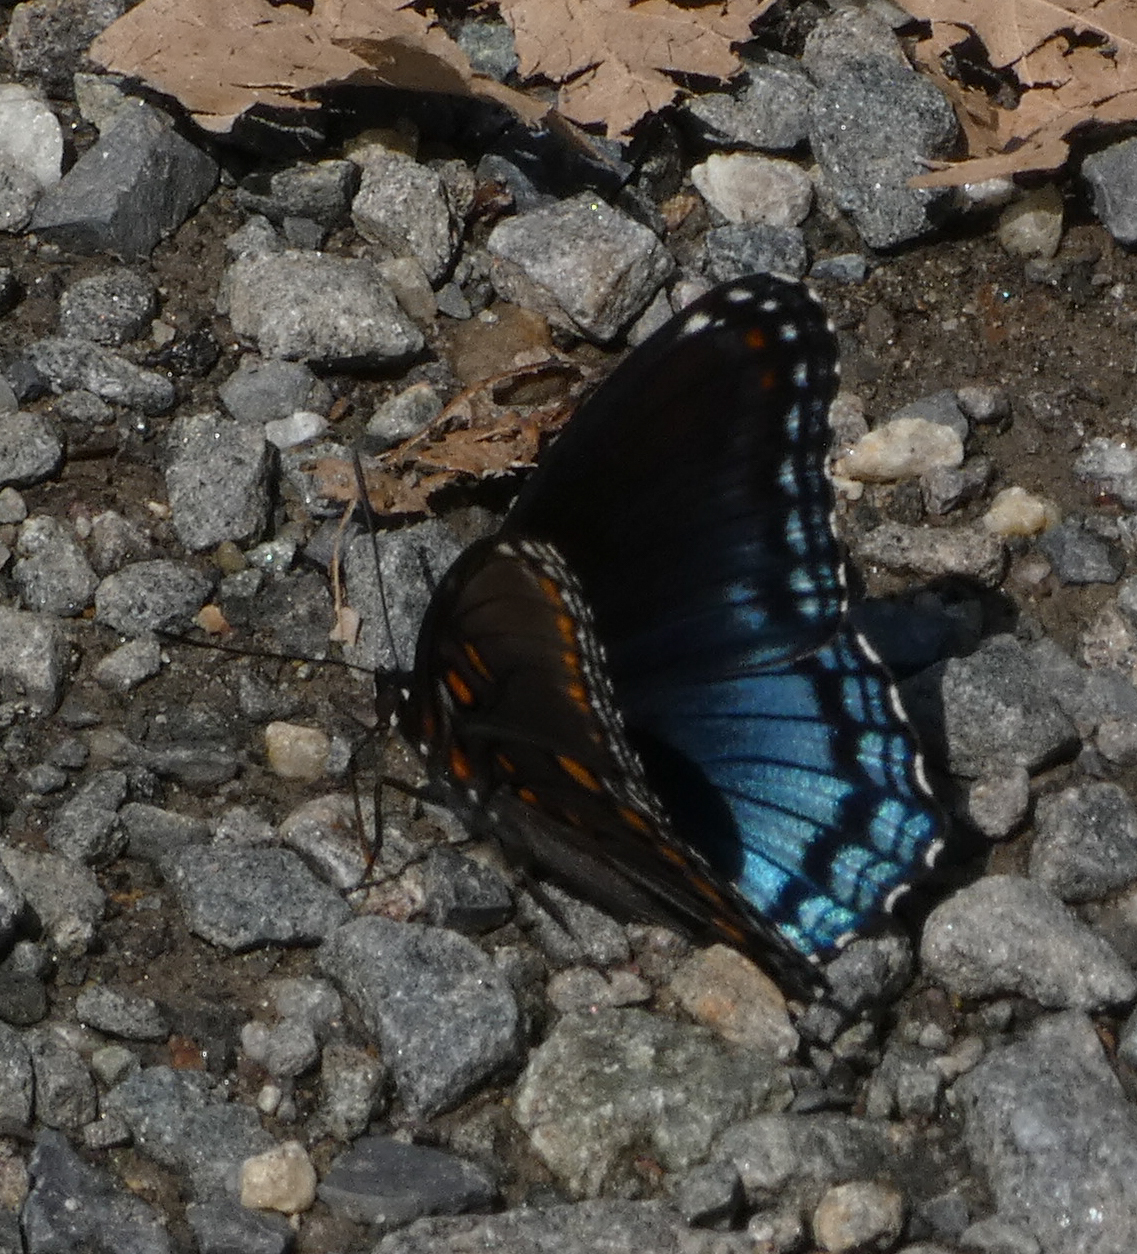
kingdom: Animalia
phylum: Arthropoda
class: Insecta
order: Lepidoptera
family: Nymphalidae
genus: Limenitis
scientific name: Limenitis astyanax
